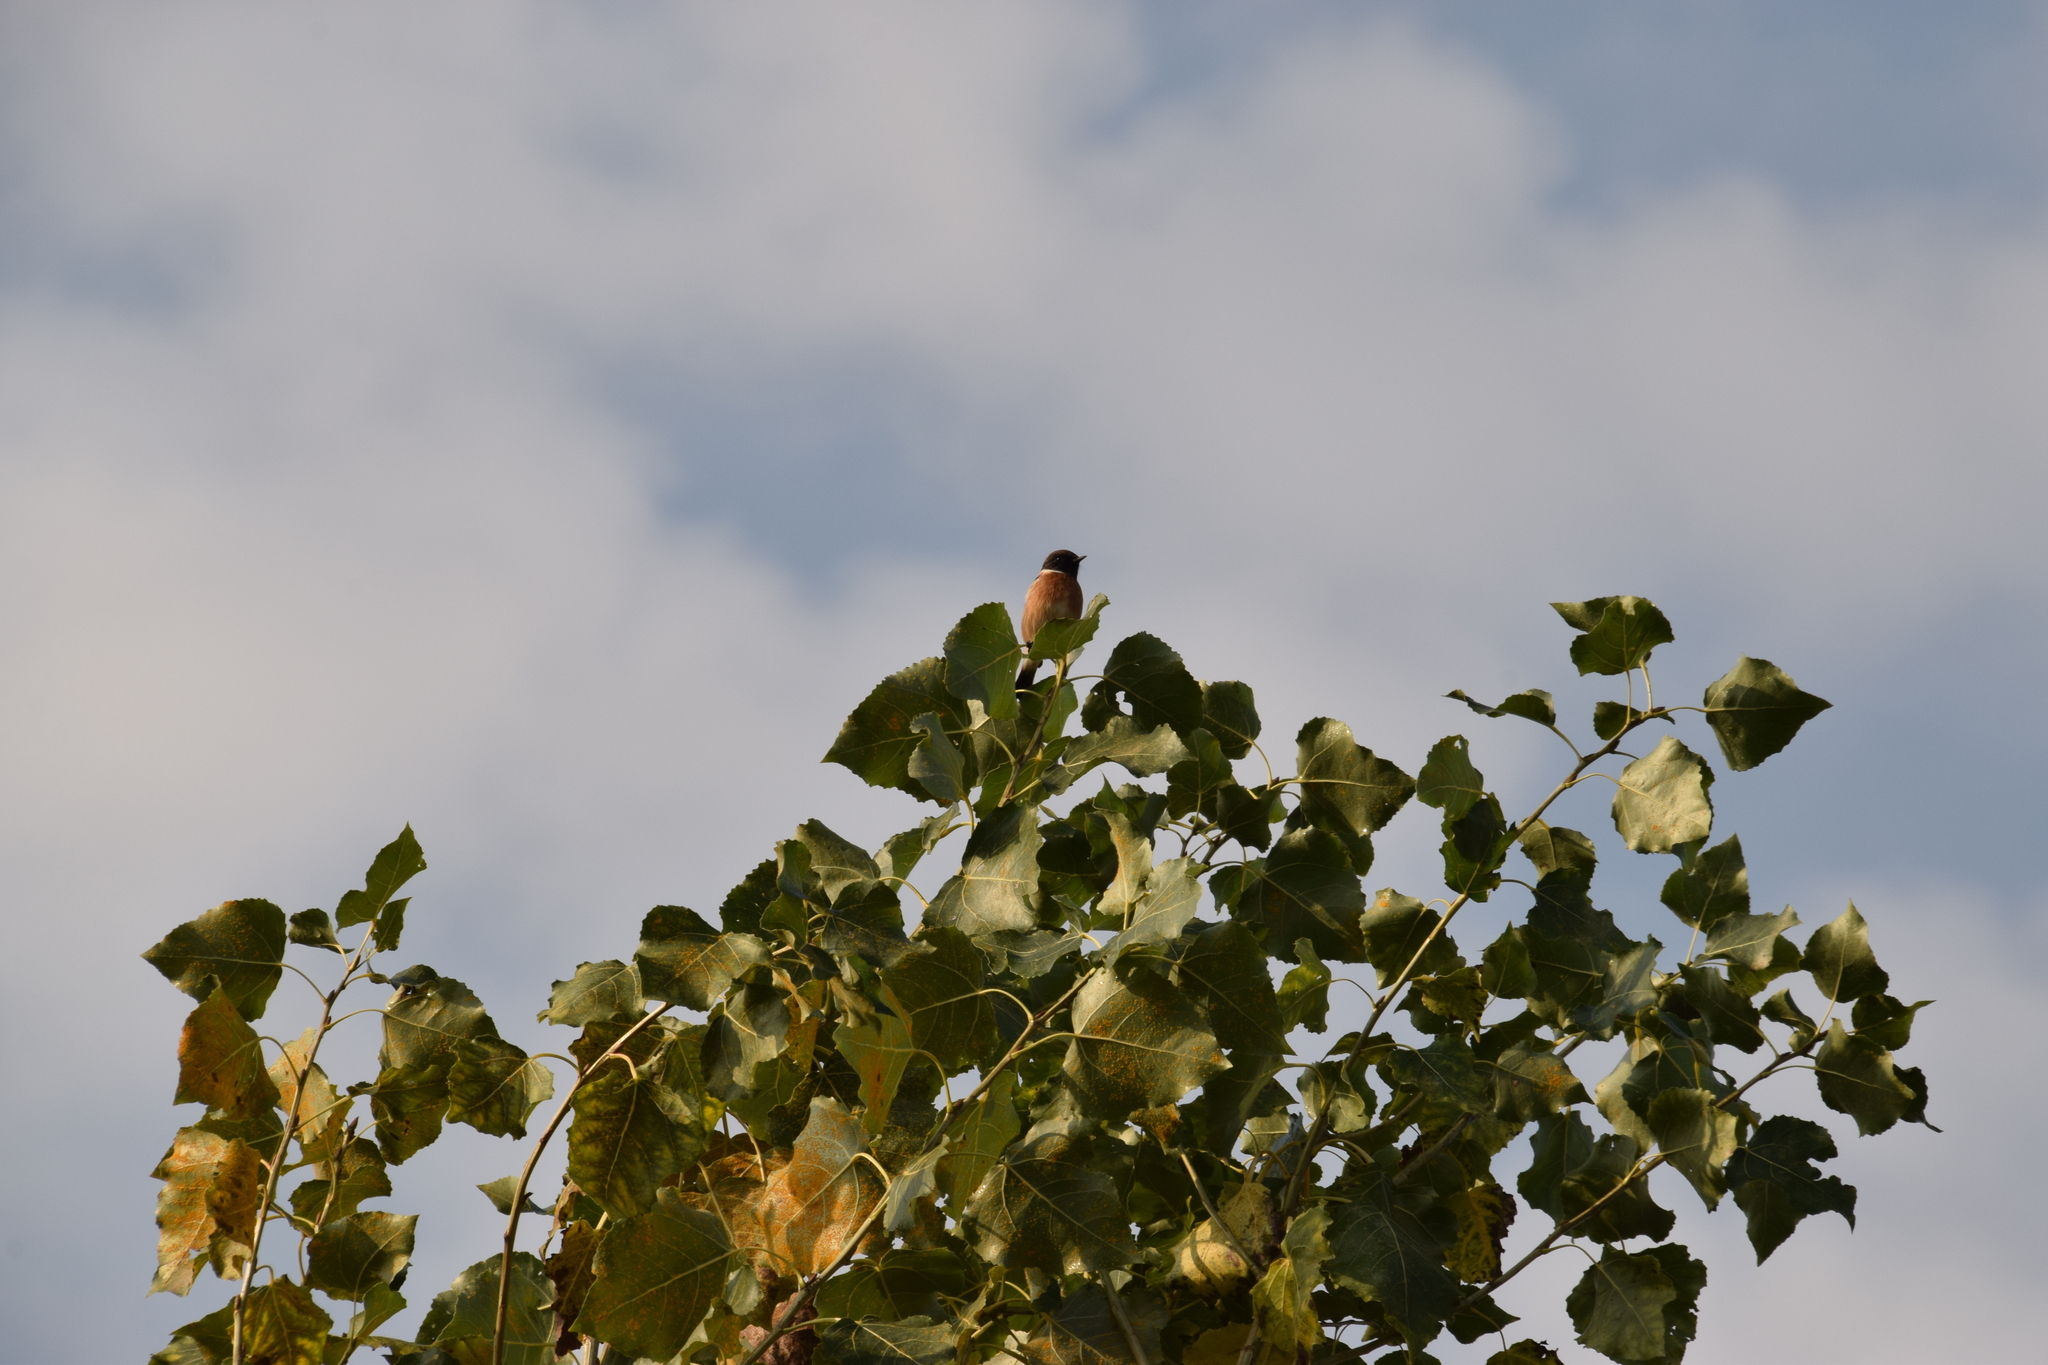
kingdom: Animalia
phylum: Chordata
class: Aves
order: Passeriformes
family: Muscicapidae
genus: Saxicola
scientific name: Saxicola rubicola
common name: European stonechat
